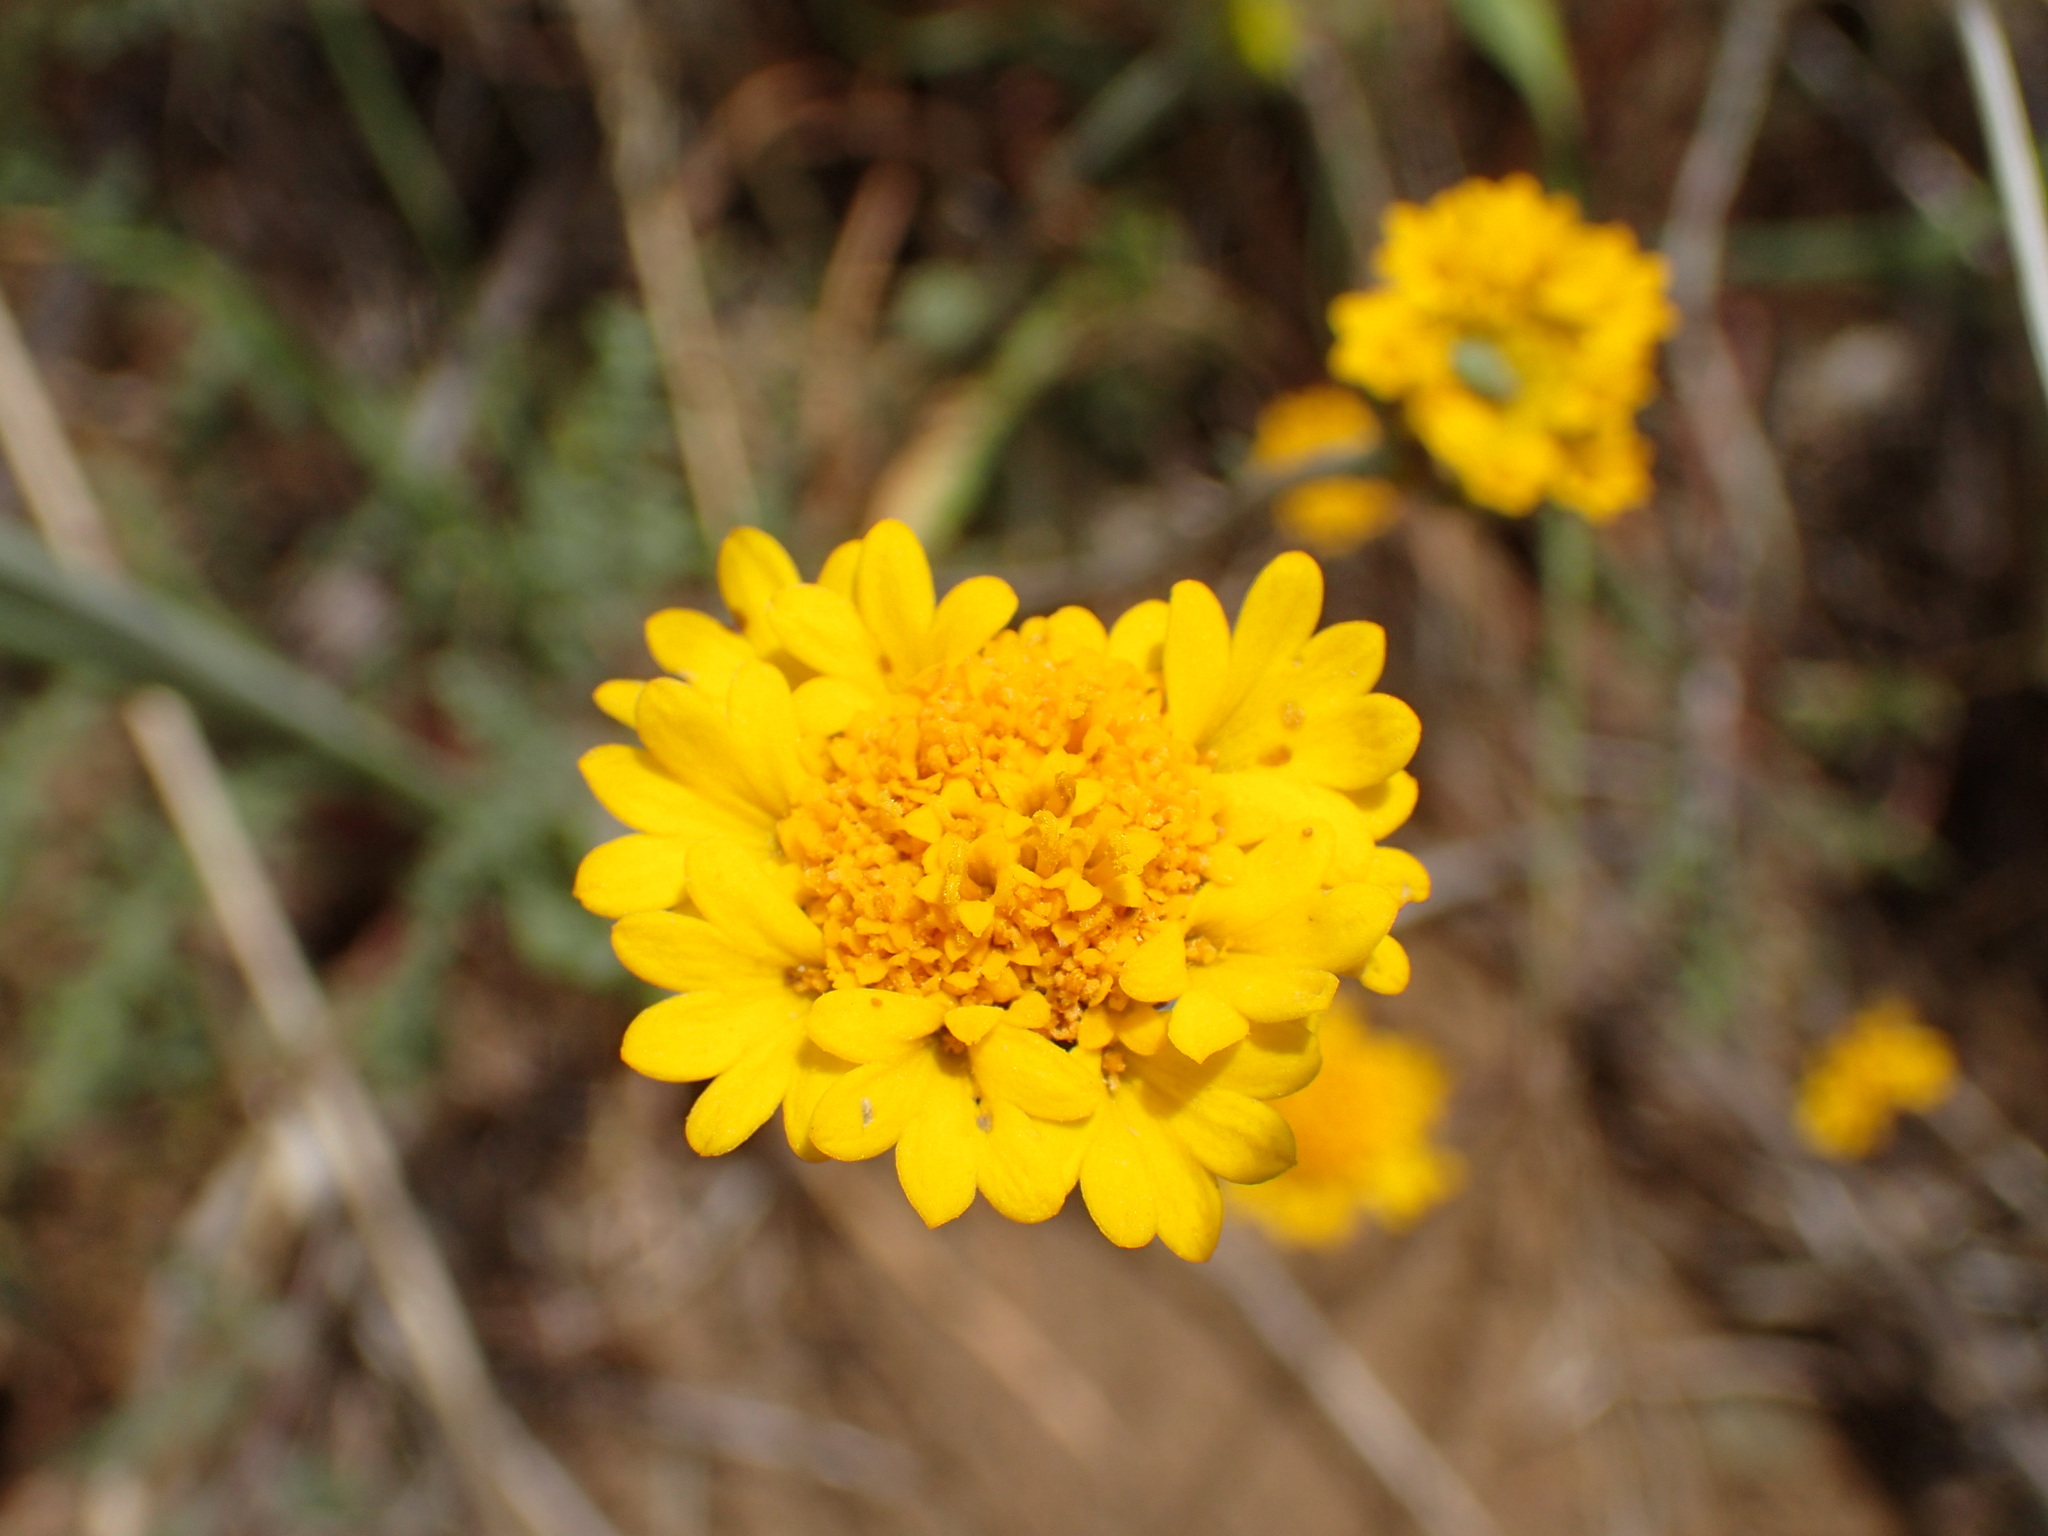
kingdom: Plantae
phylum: Tracheophyta
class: Magnoliopsida
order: Asterales
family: Asteraceae
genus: Chaenactis
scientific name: Chaenactis glabriuscula
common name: Yellow pincushion
